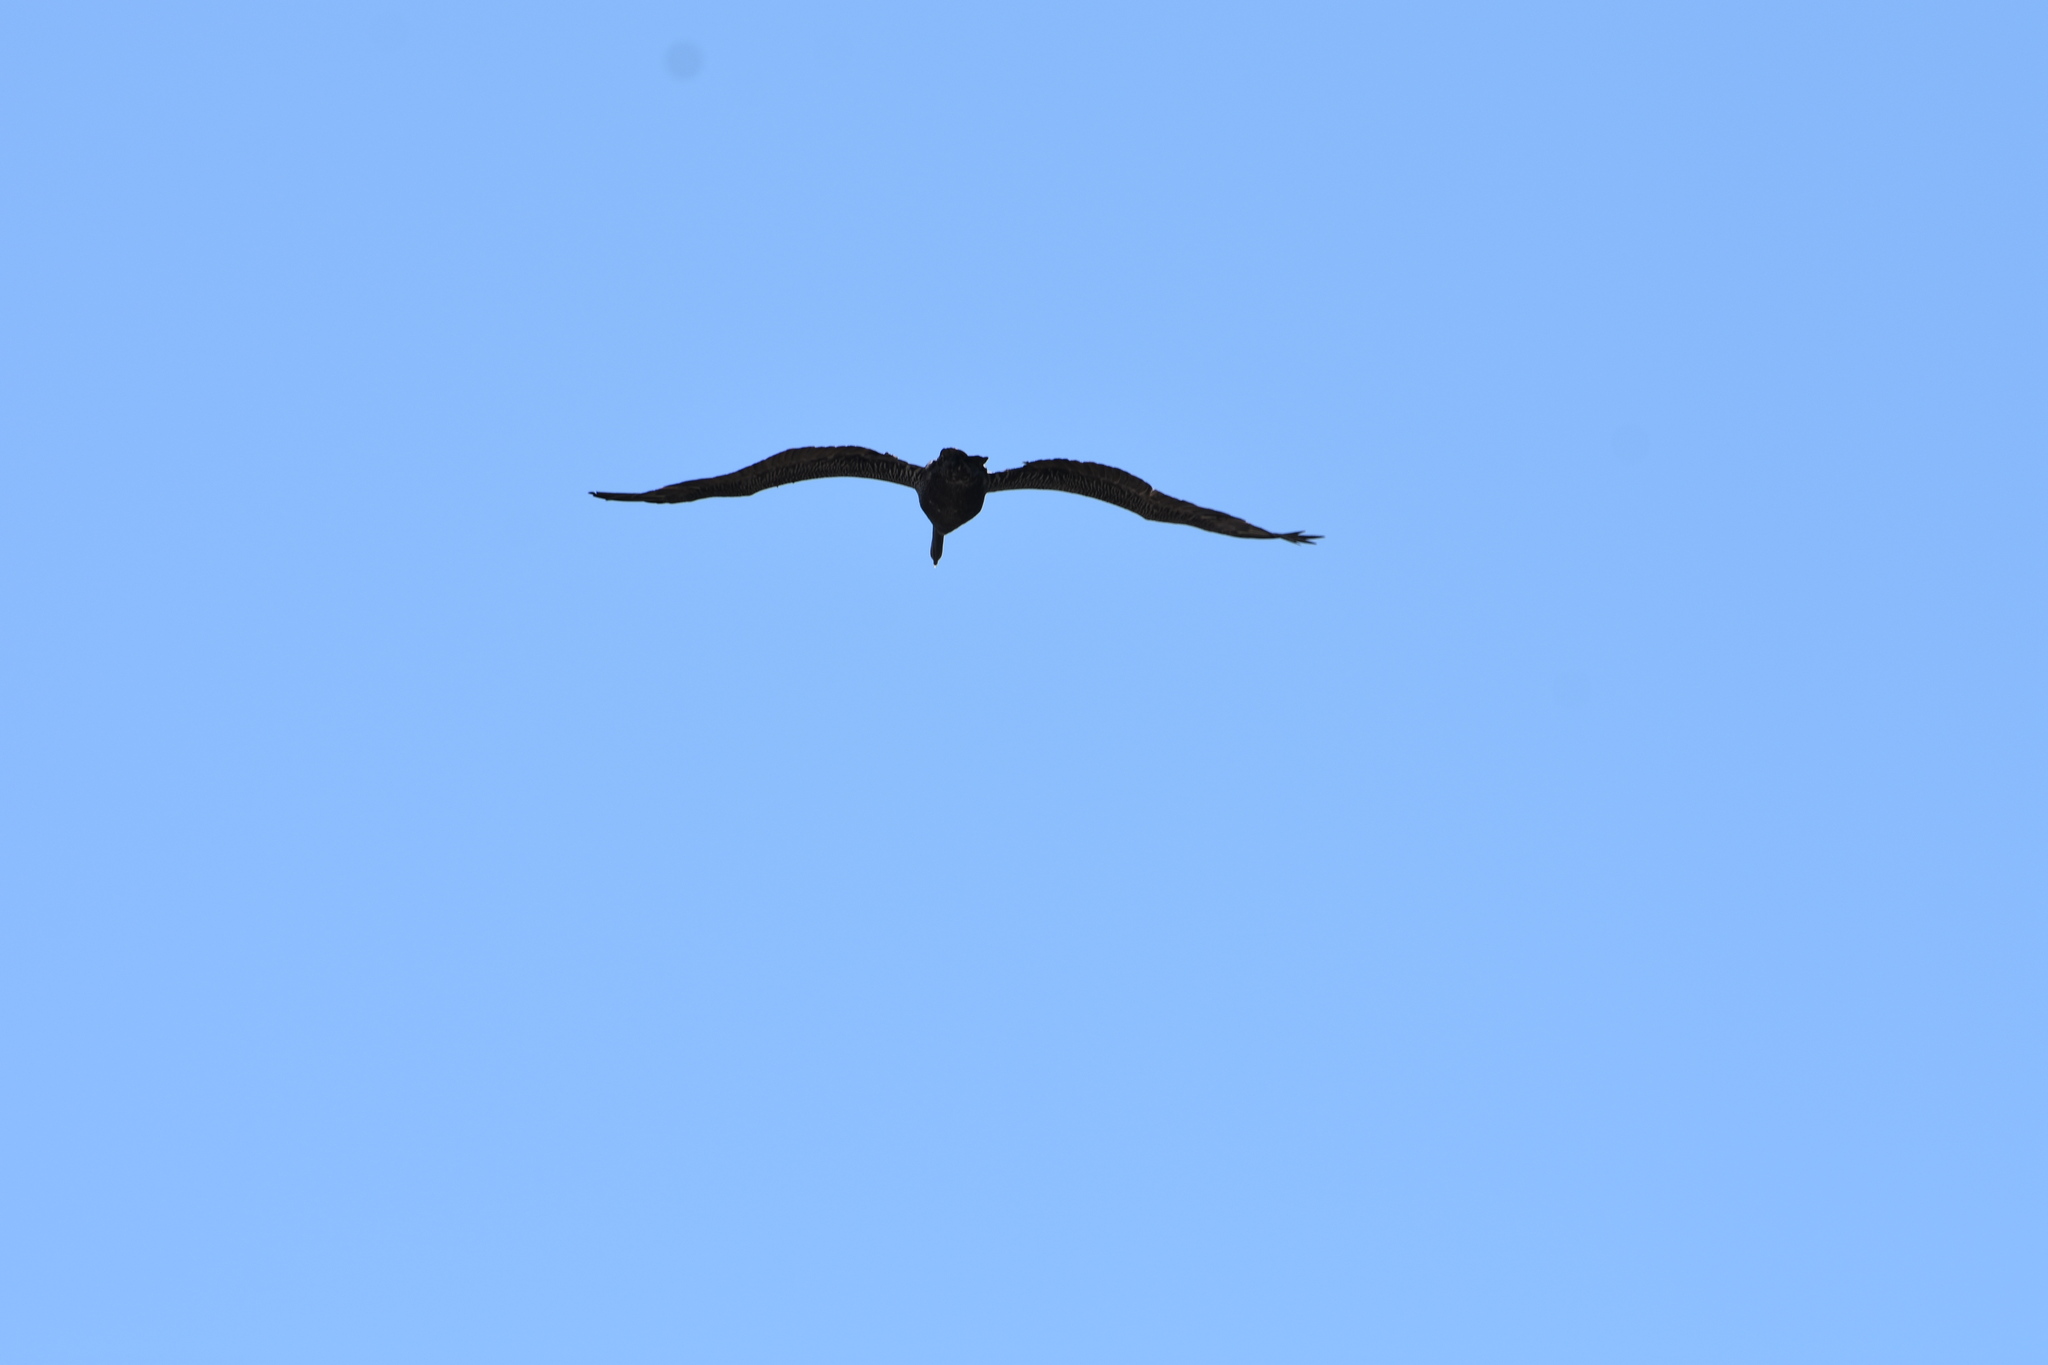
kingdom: Animalia
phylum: Chordata
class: Aves
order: Pelecaniformes
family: Pelecanidae
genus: Pelecanus
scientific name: Pelecanus occidentalis
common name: Brown pelican
